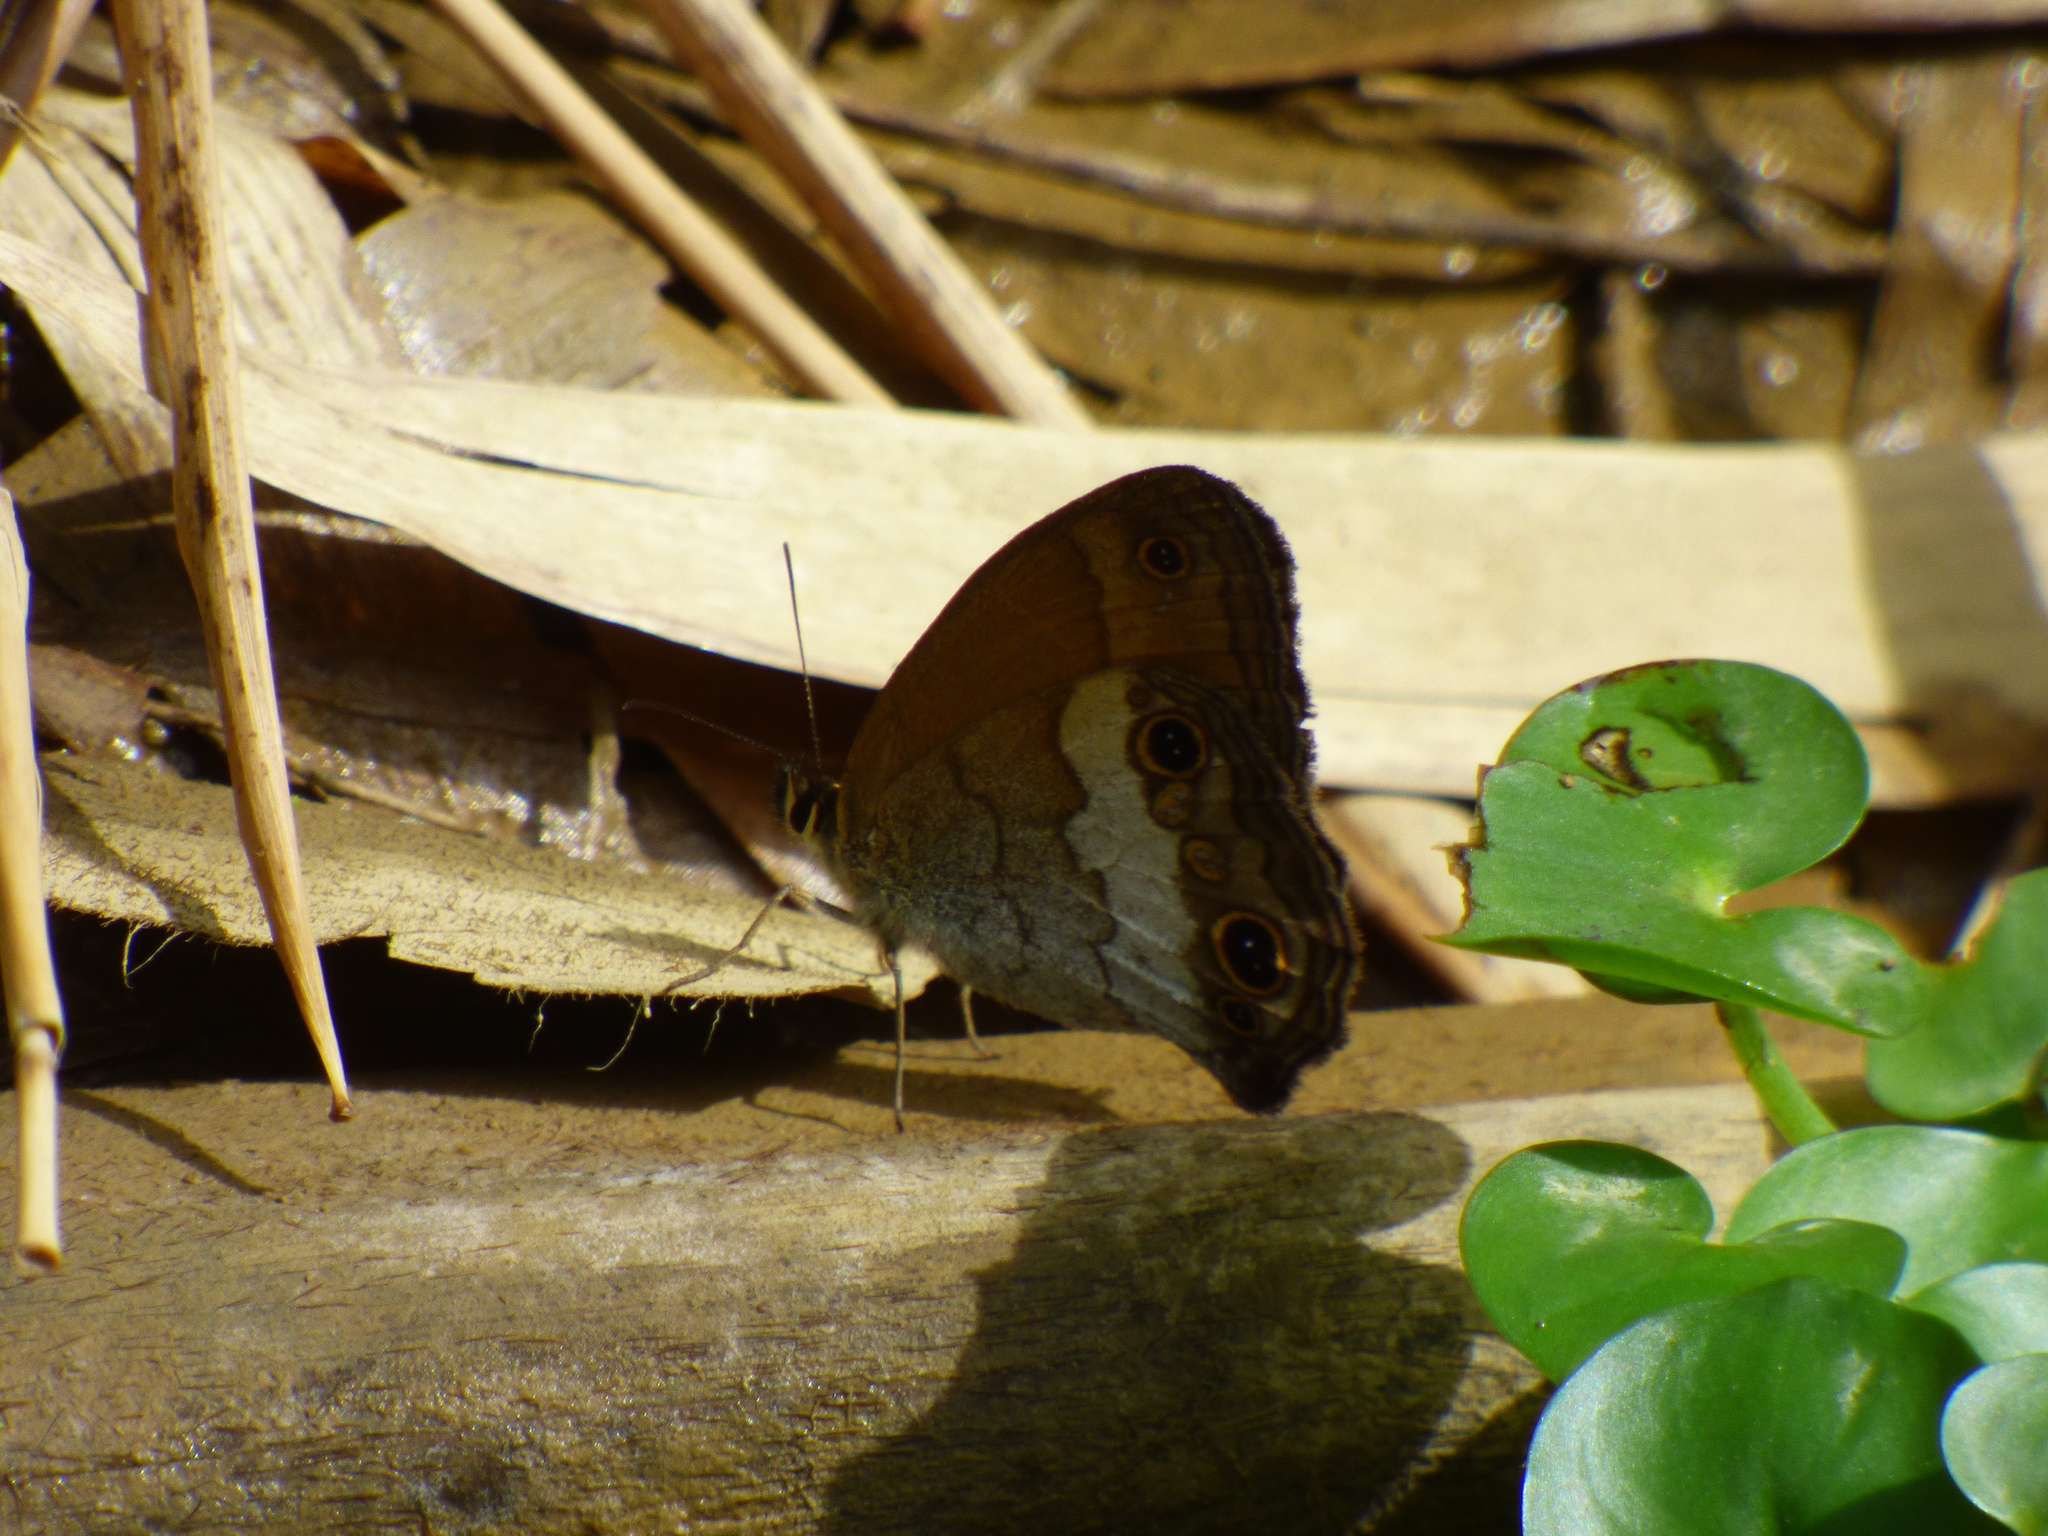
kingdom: Animalia
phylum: Arthropoda
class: Insecta
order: Lepidoptera
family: Nymphalidae
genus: Graphita
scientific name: Graphita griphe
